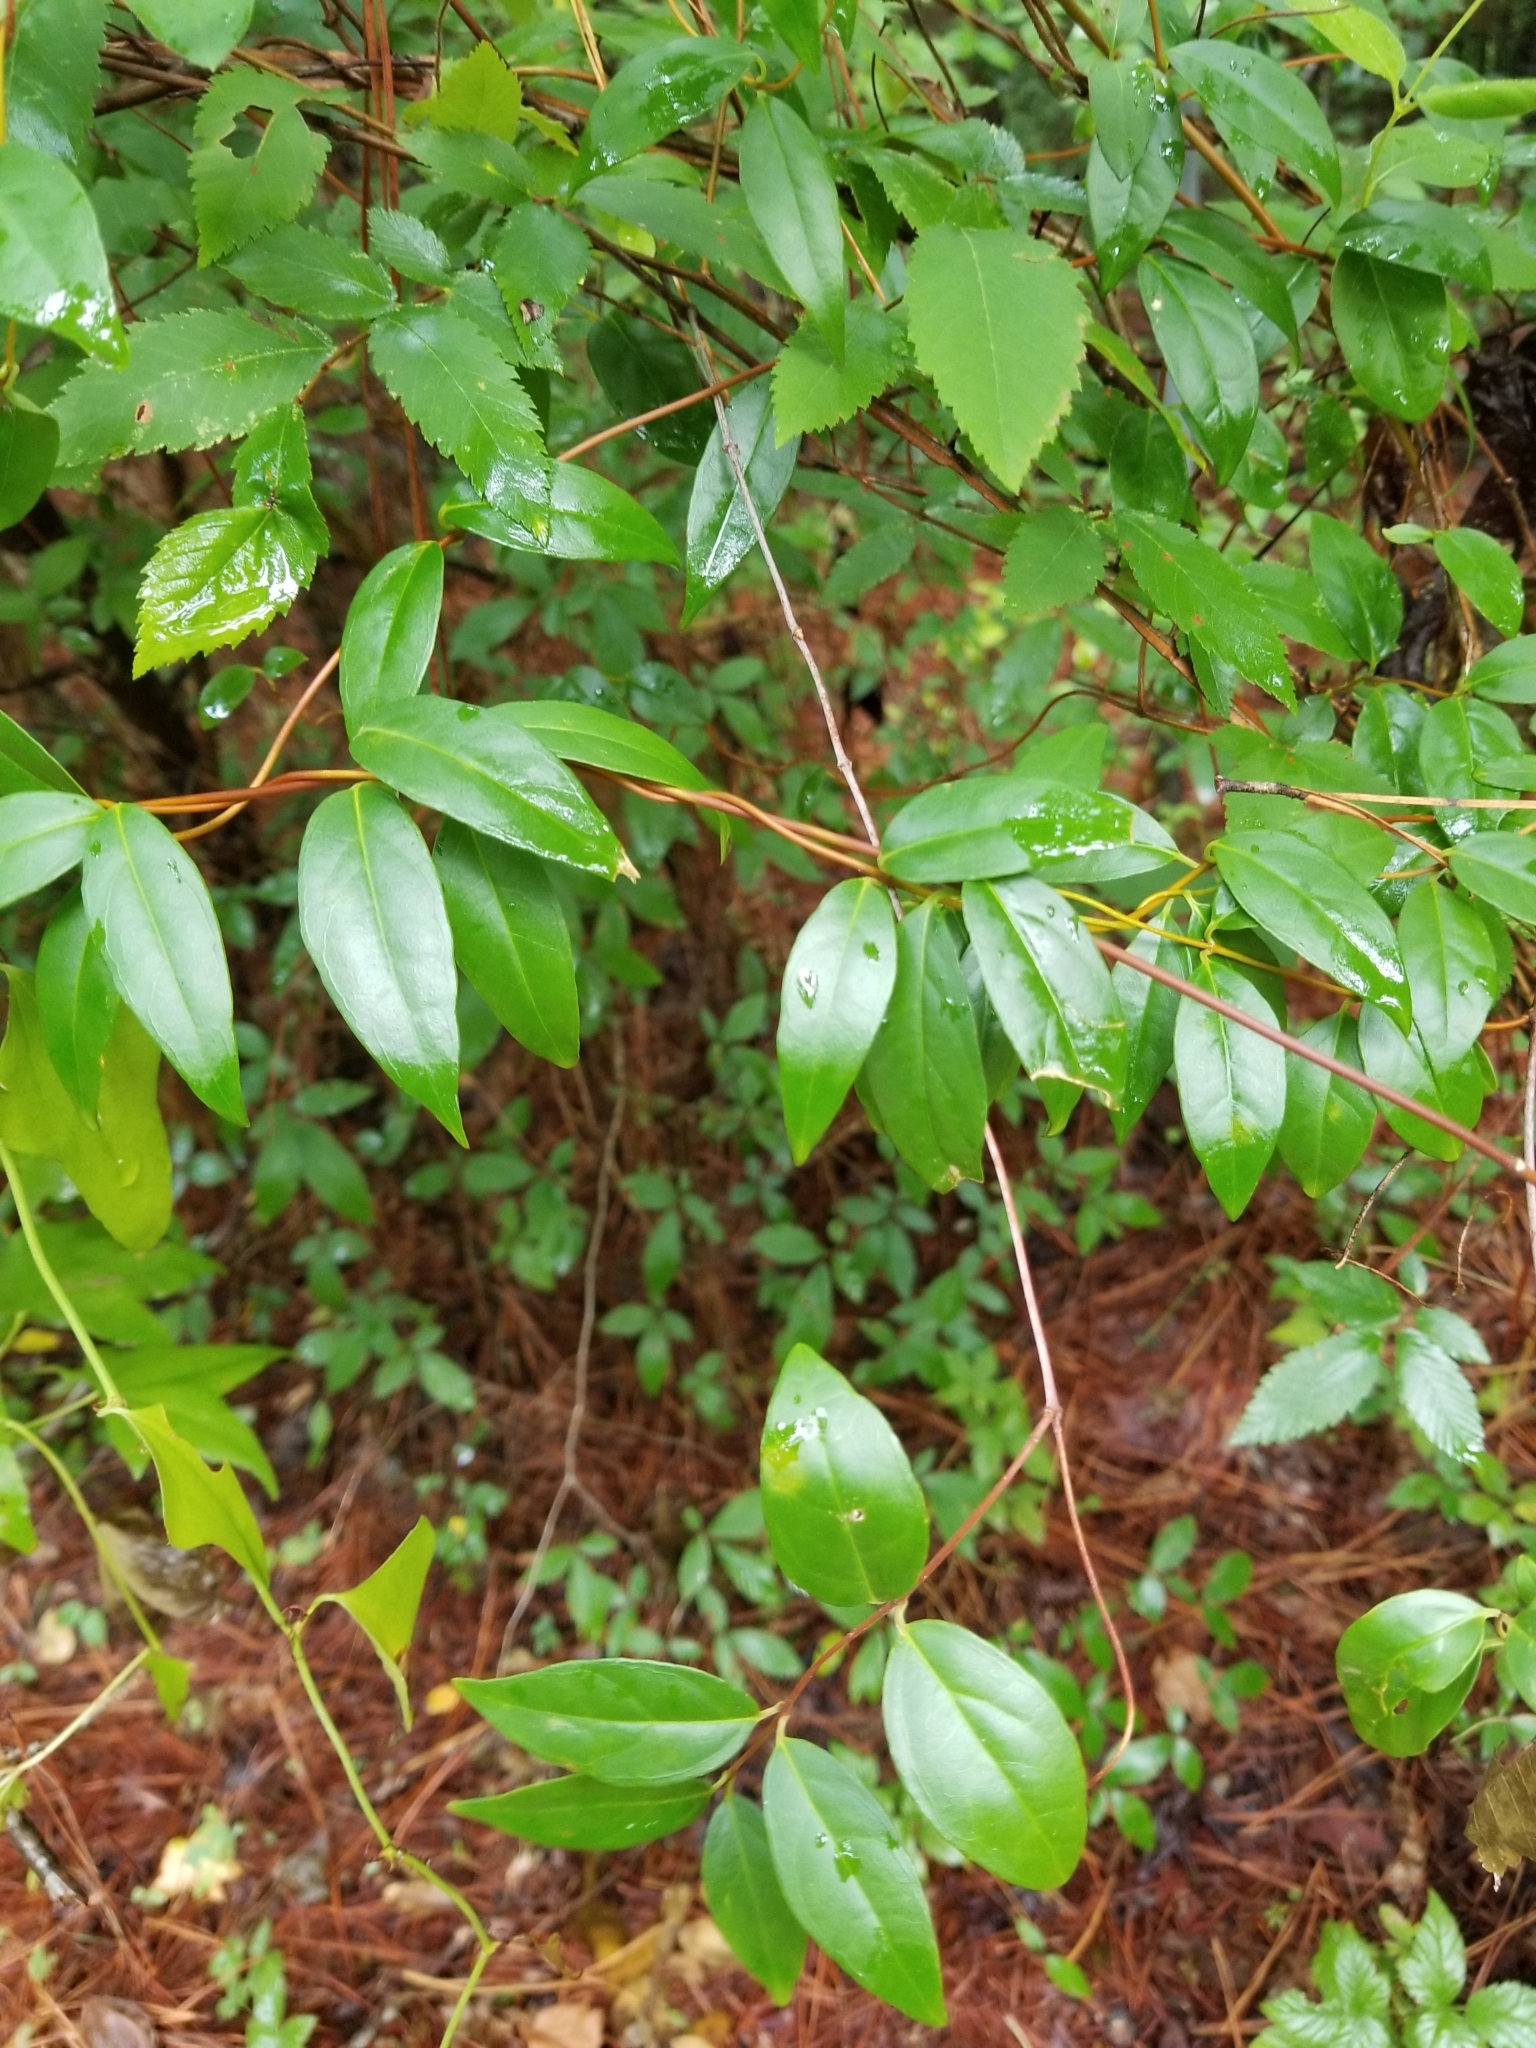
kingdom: Plantae
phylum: Tracheophyta
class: Magnoliopsida
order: Gentianales
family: Gelsemiaceae
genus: Gelsemium
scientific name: Gelsemium sempervirens
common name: Carolina-jasmine
